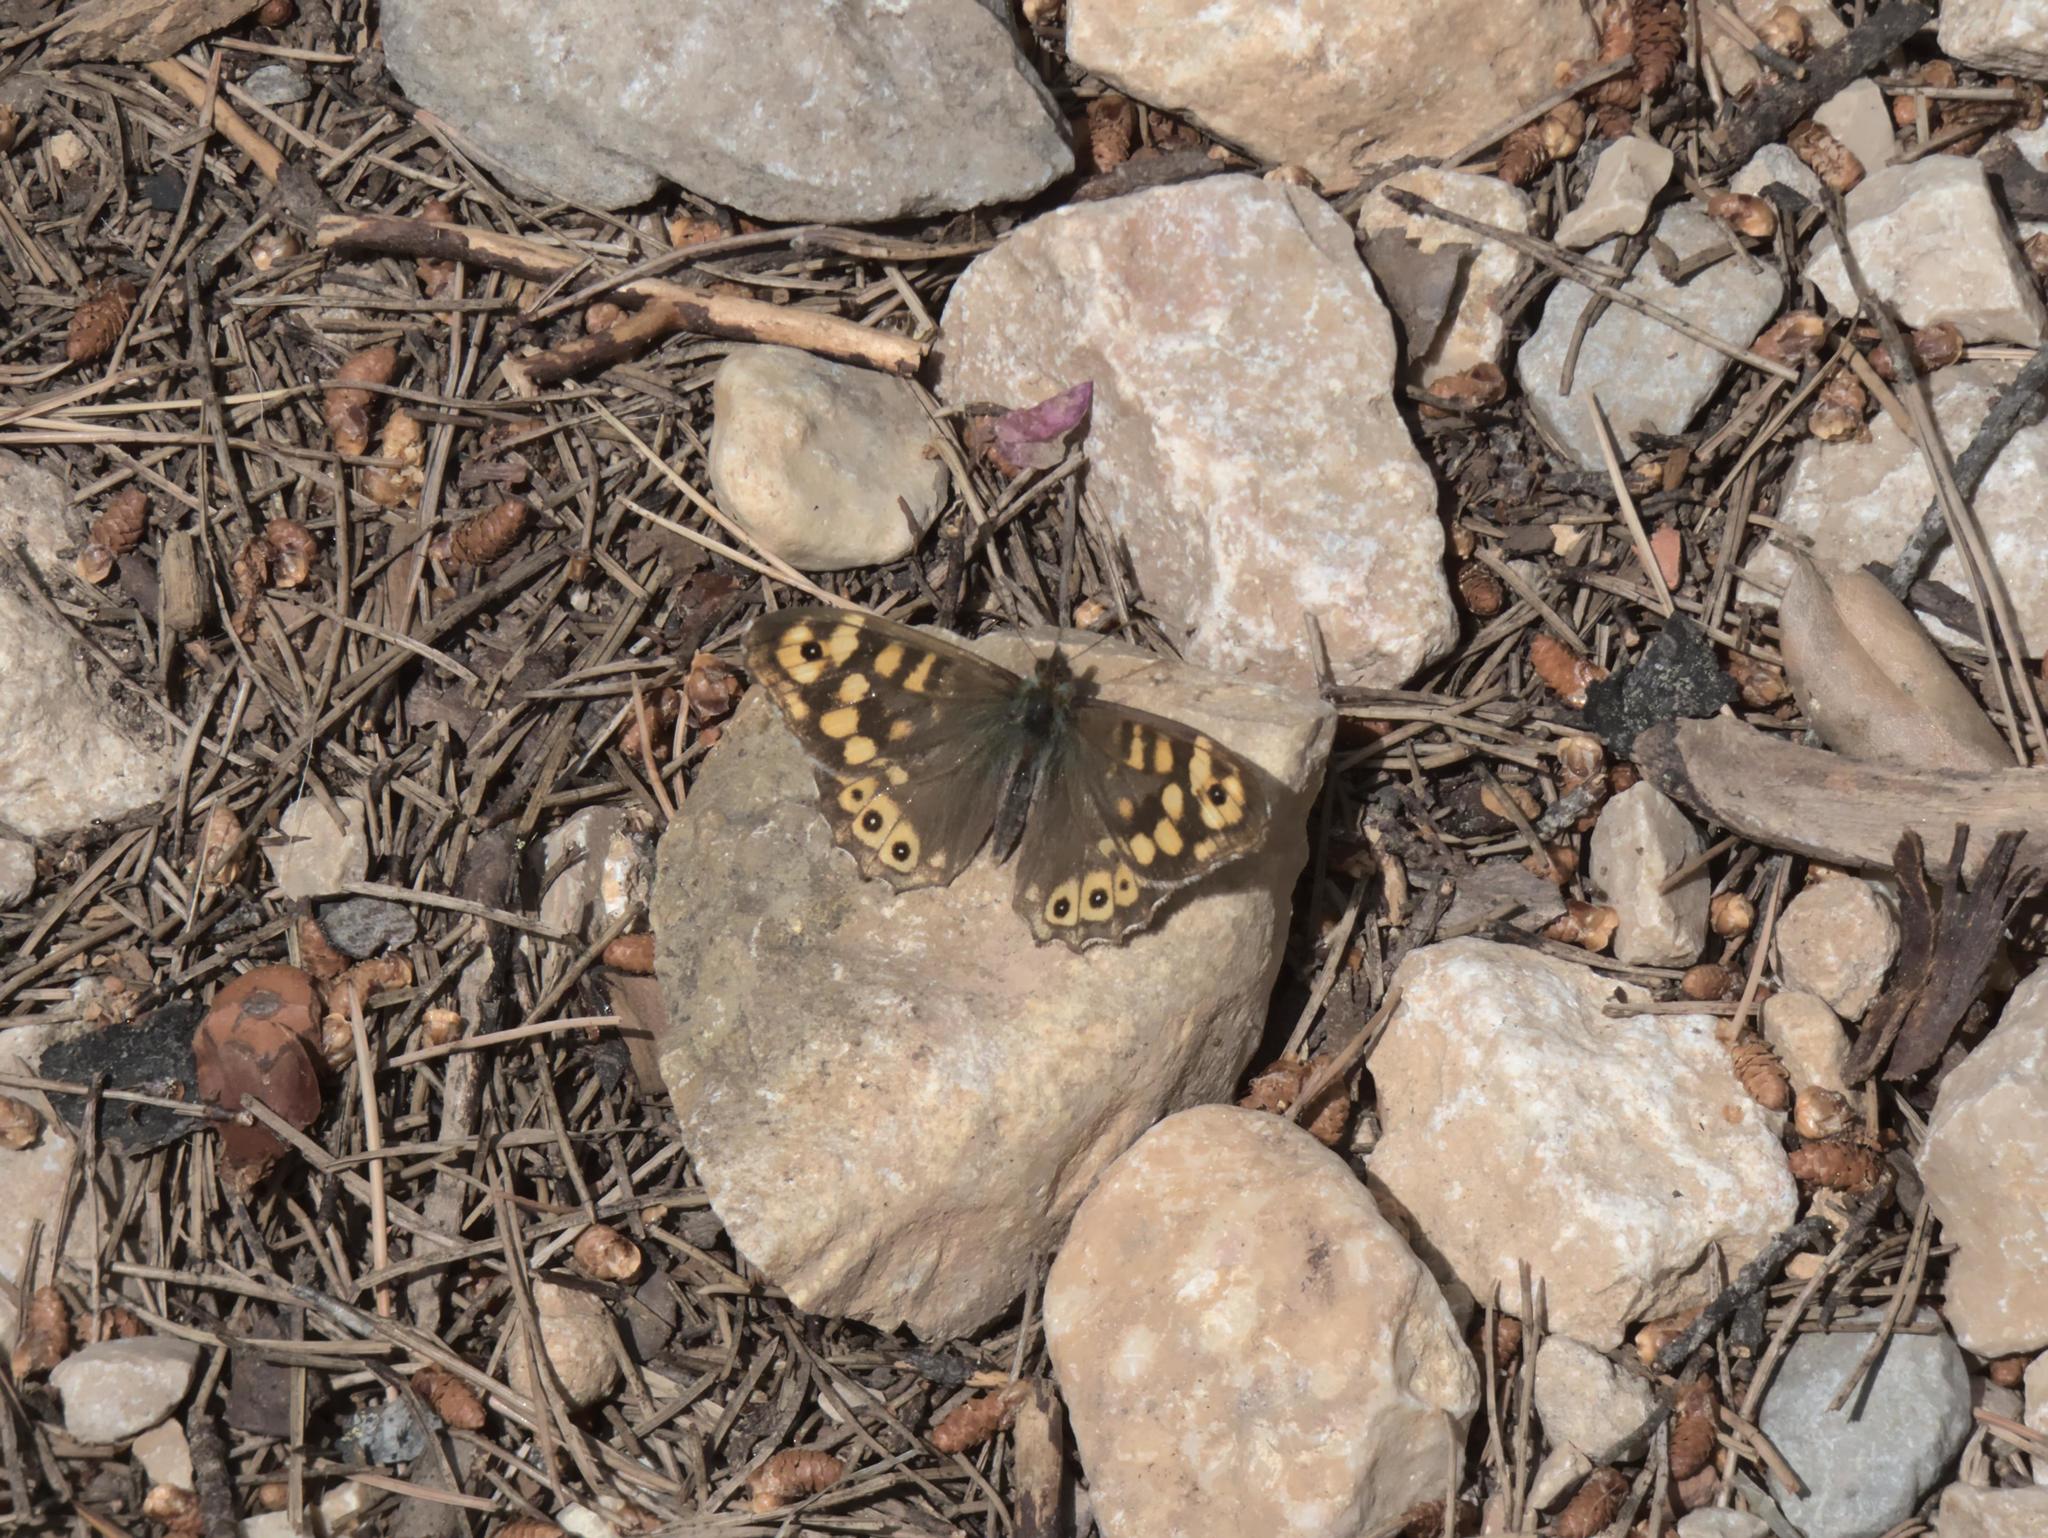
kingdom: Animalia
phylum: Arthropoda
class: Insecta
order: Lepidoptera
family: Nymphalidae
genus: Pararge
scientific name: Pararge aegeria
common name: Speckled wood
